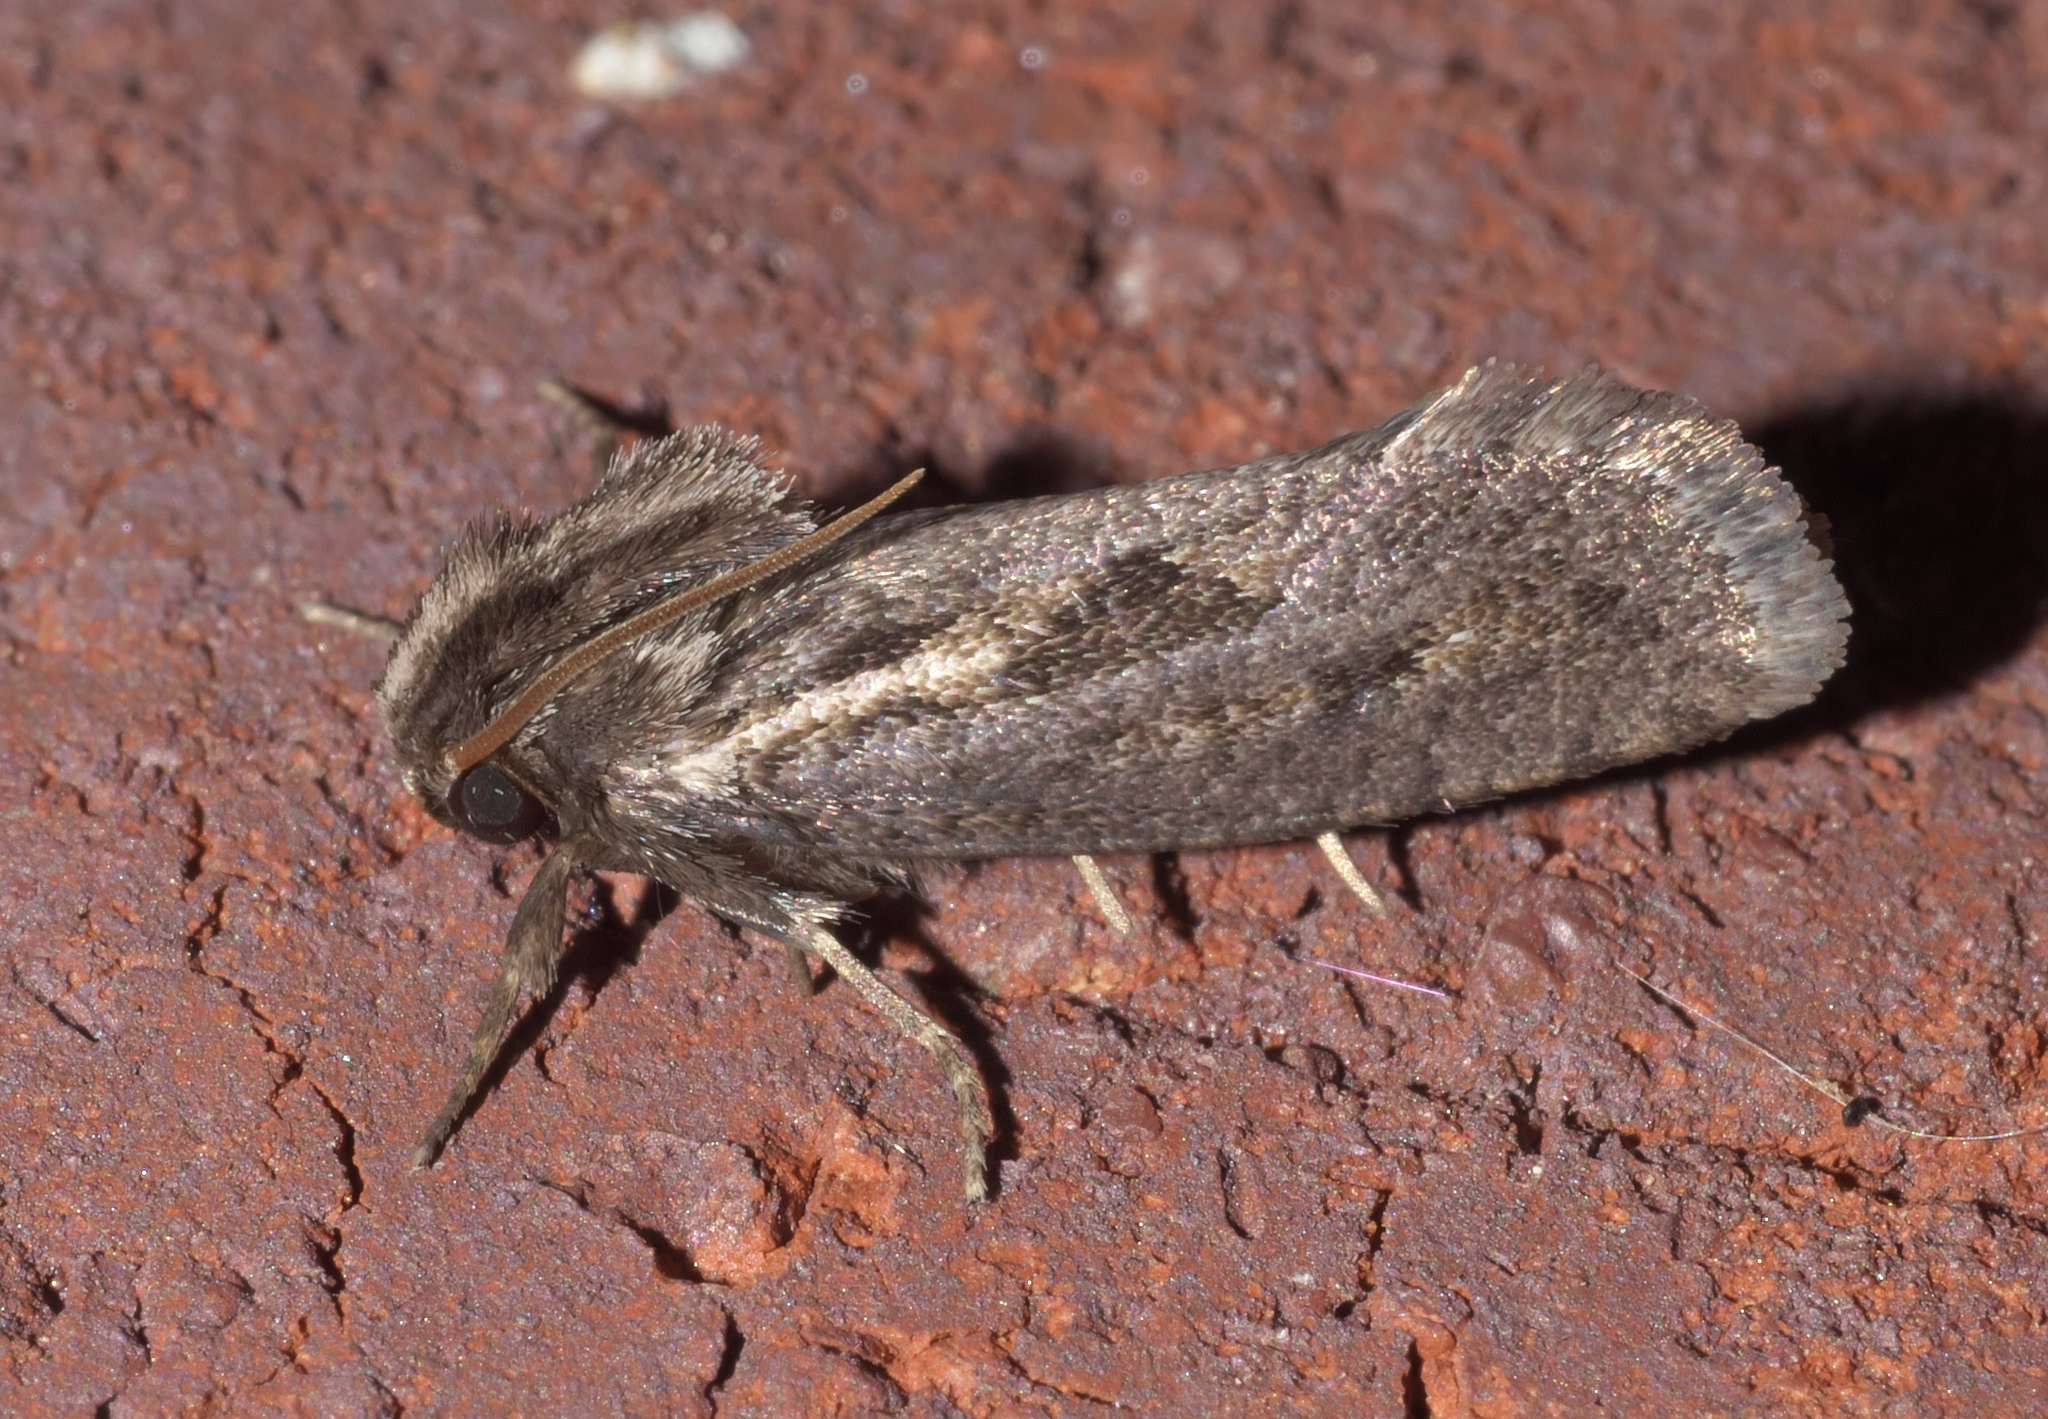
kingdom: Animalia
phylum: Arthropoda
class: Insecta
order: Lepidoptera
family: Tineidae
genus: Acrolophus
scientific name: Acrolophus popeanella
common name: Clemens' grass tubeworm moth
